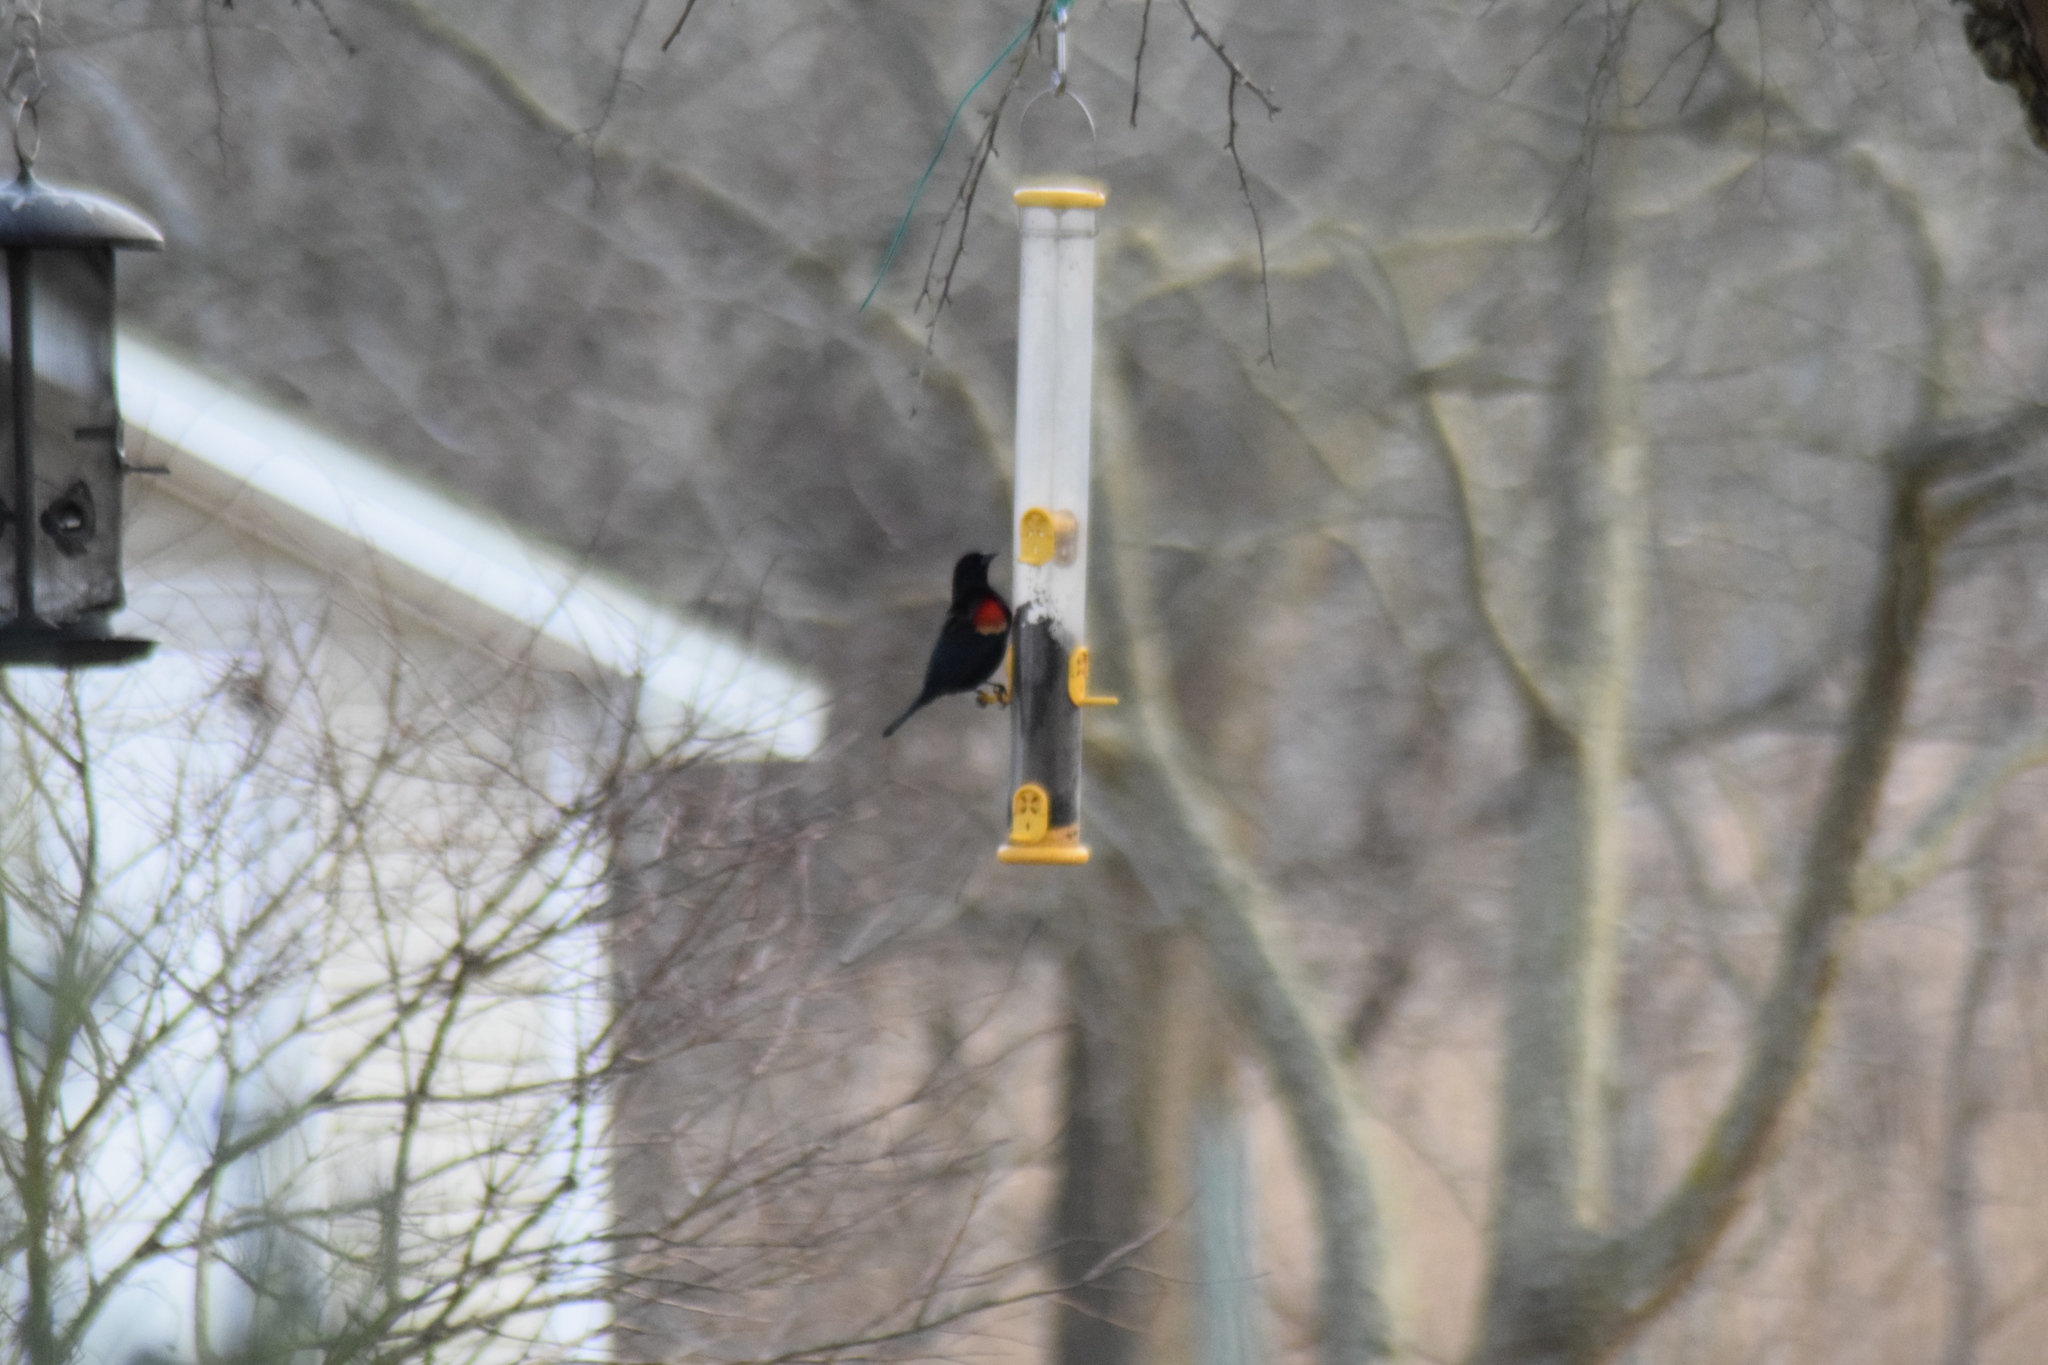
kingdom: Animalia
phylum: Chordata
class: Aves
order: Passeriformes
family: Icteridae
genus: Agelaius
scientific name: Agelaius phoeniceus
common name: Red-winged blackbird
